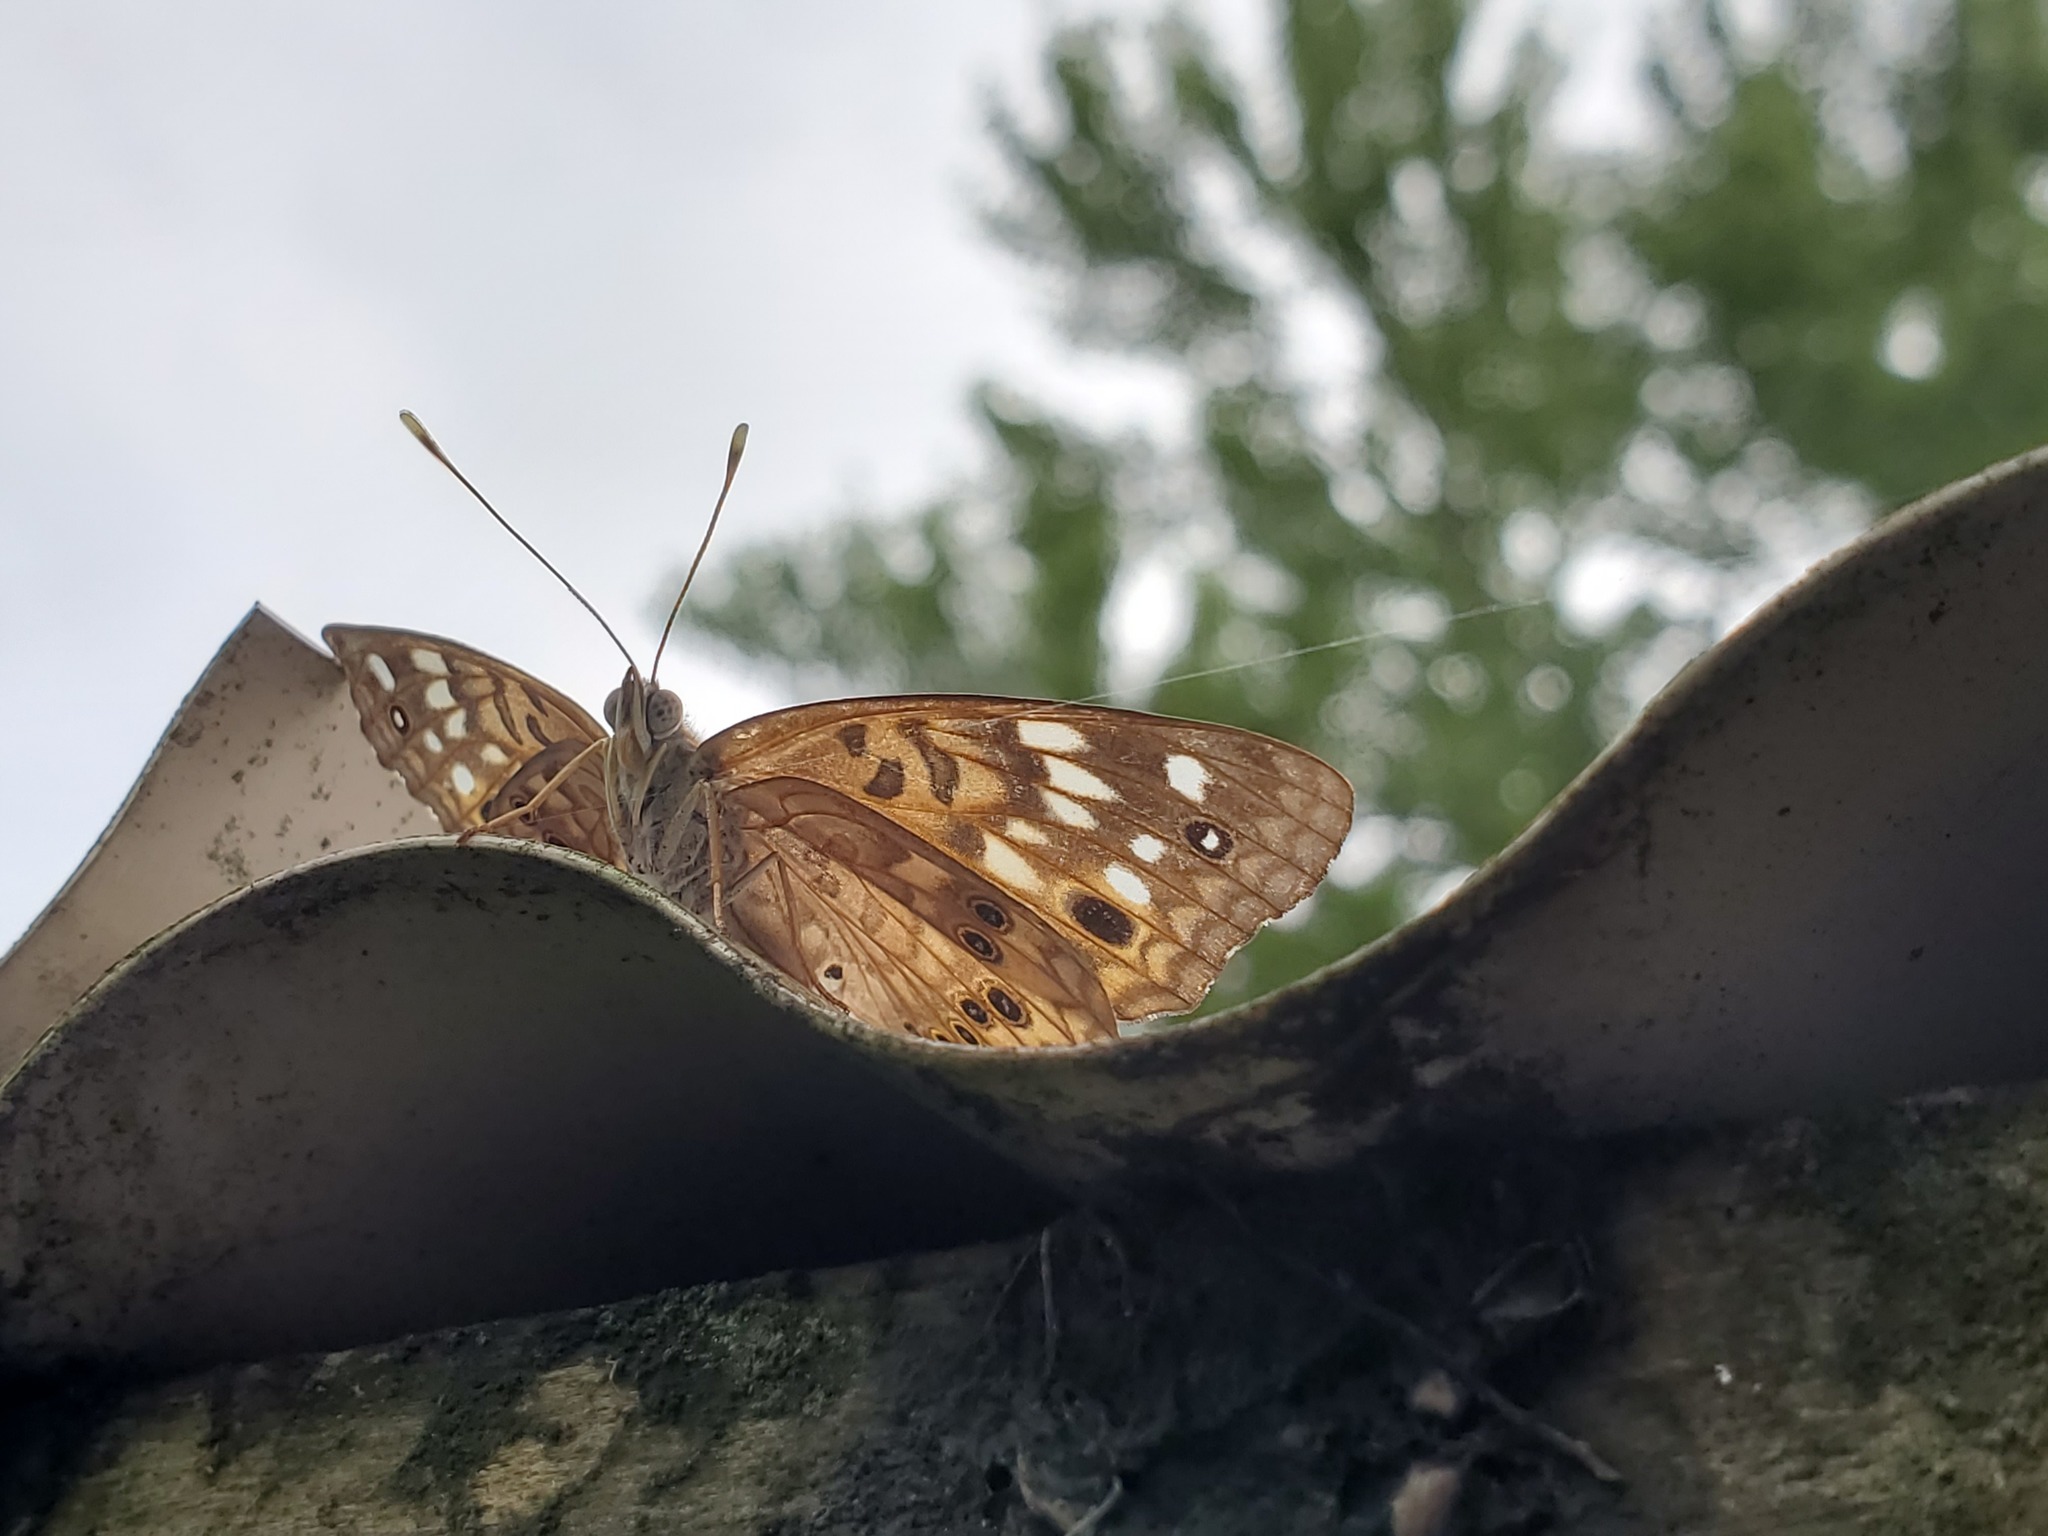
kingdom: Animalia
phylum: Arthropoda
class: Insecta
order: Lepidoptera
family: Nymphalidae
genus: Asterocampa
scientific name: Asterocampa celtis
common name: Hackberry emperor
